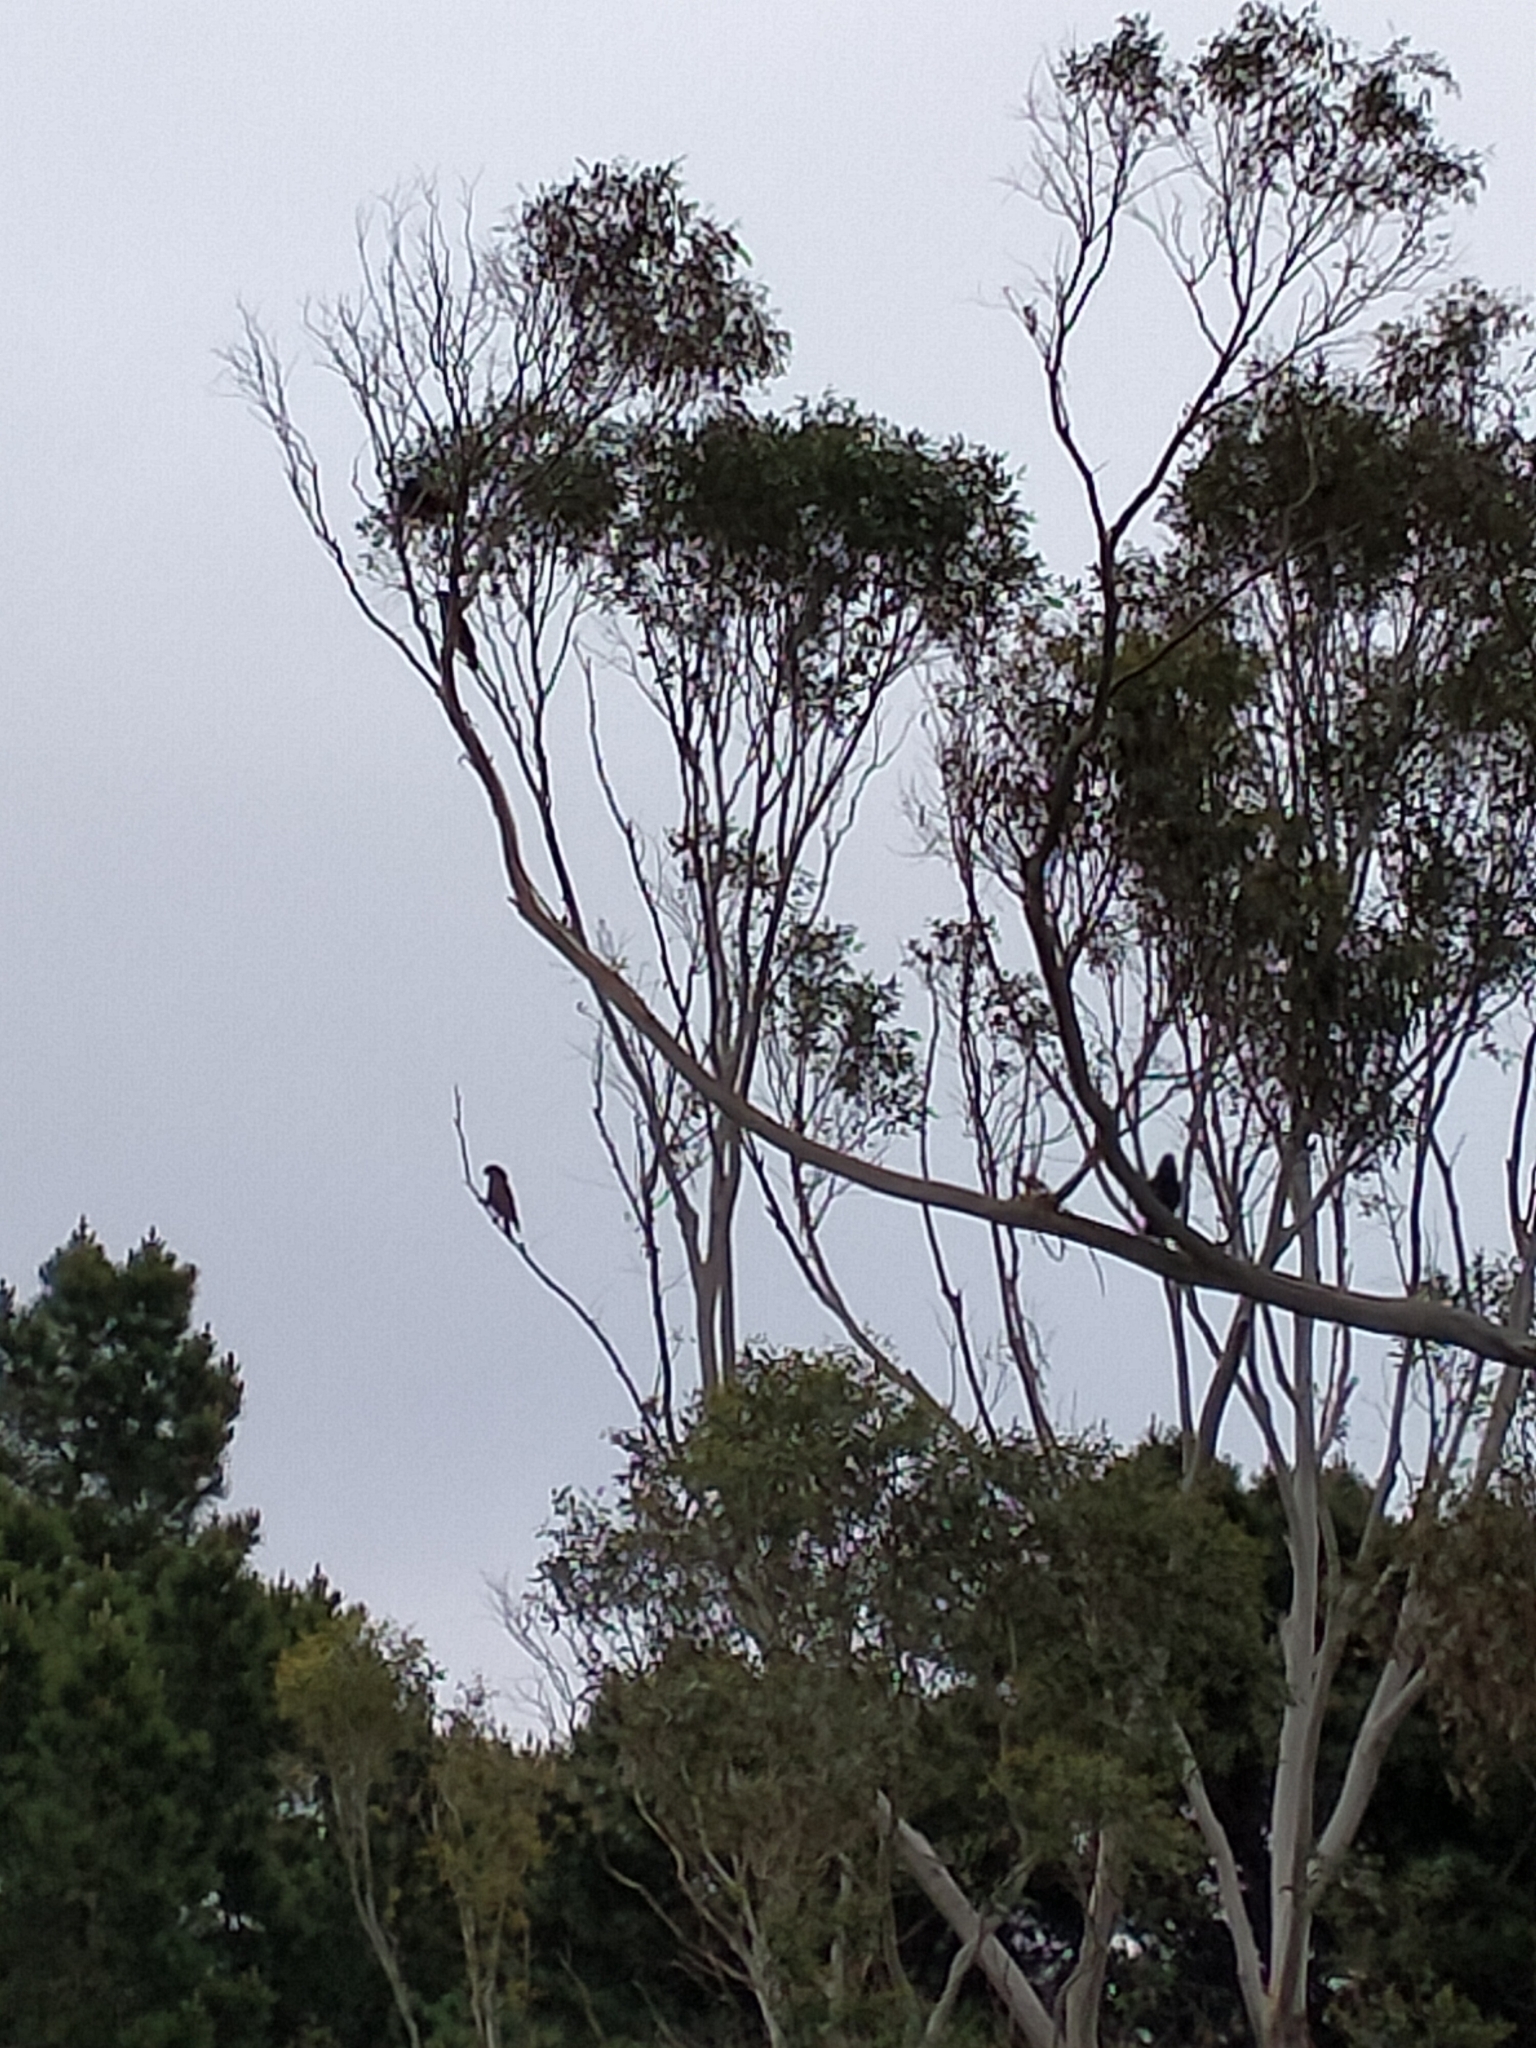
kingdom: Animalia
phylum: Chordata
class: Aves
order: Psittaciformes
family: Psittacidae
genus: Nestor
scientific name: Nestor meridionalis
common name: New zealand kaka
